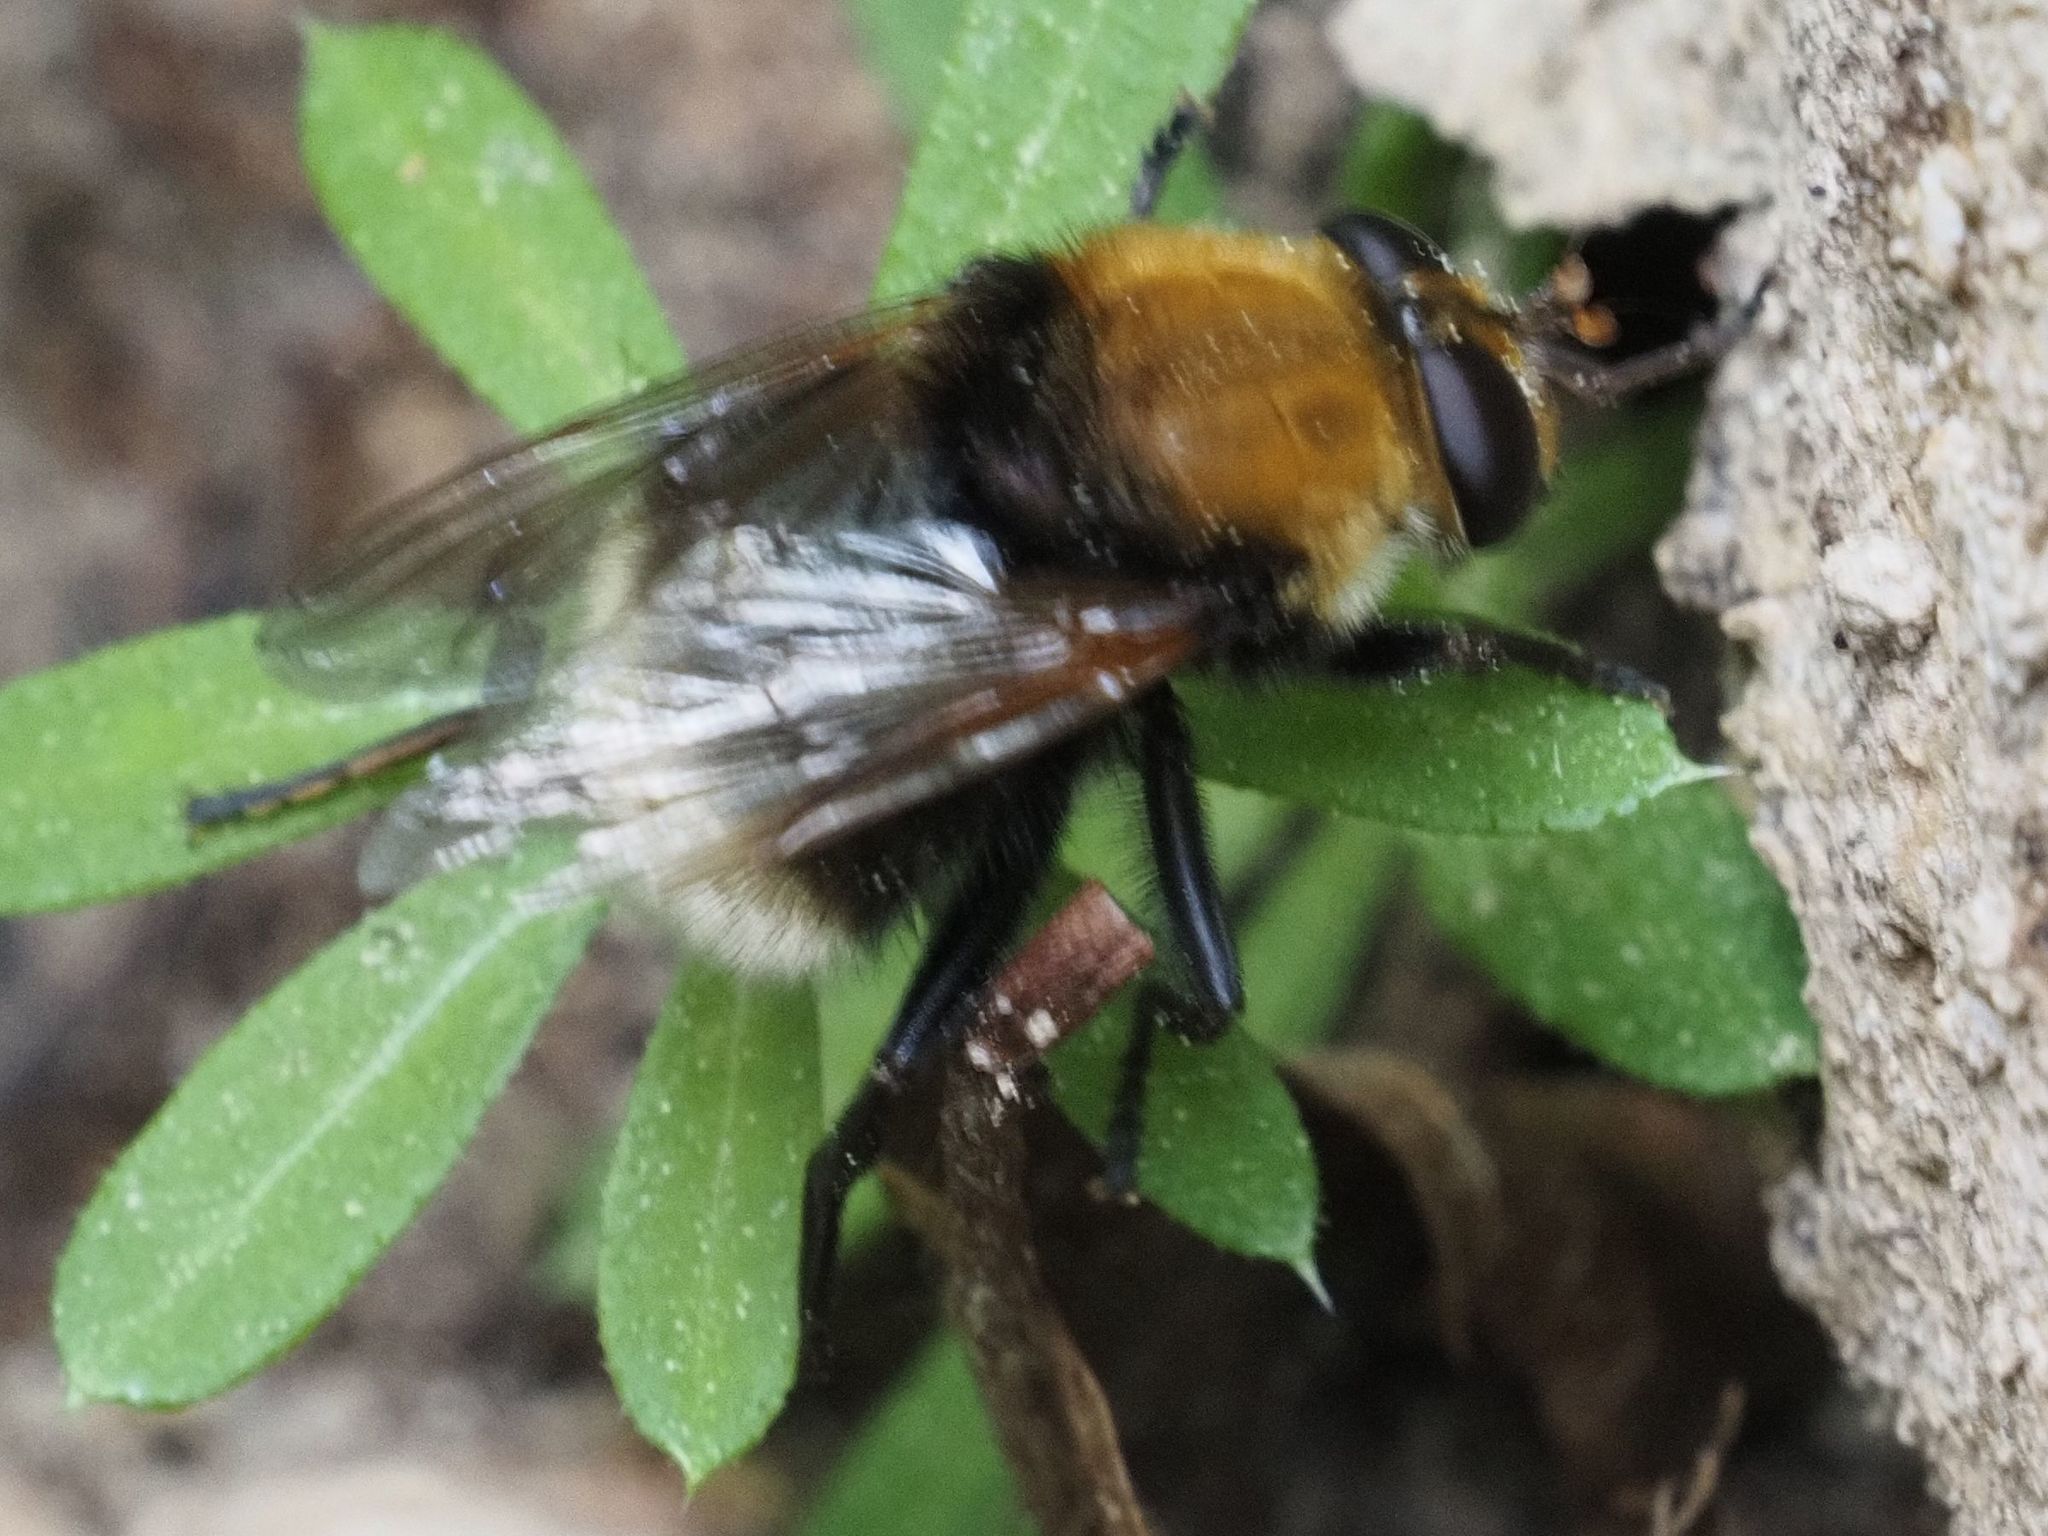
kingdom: Animalia
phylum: Arthropoda
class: Insecta
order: Diptera
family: Syrphidae
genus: Criorhina
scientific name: Criorhina berberina
